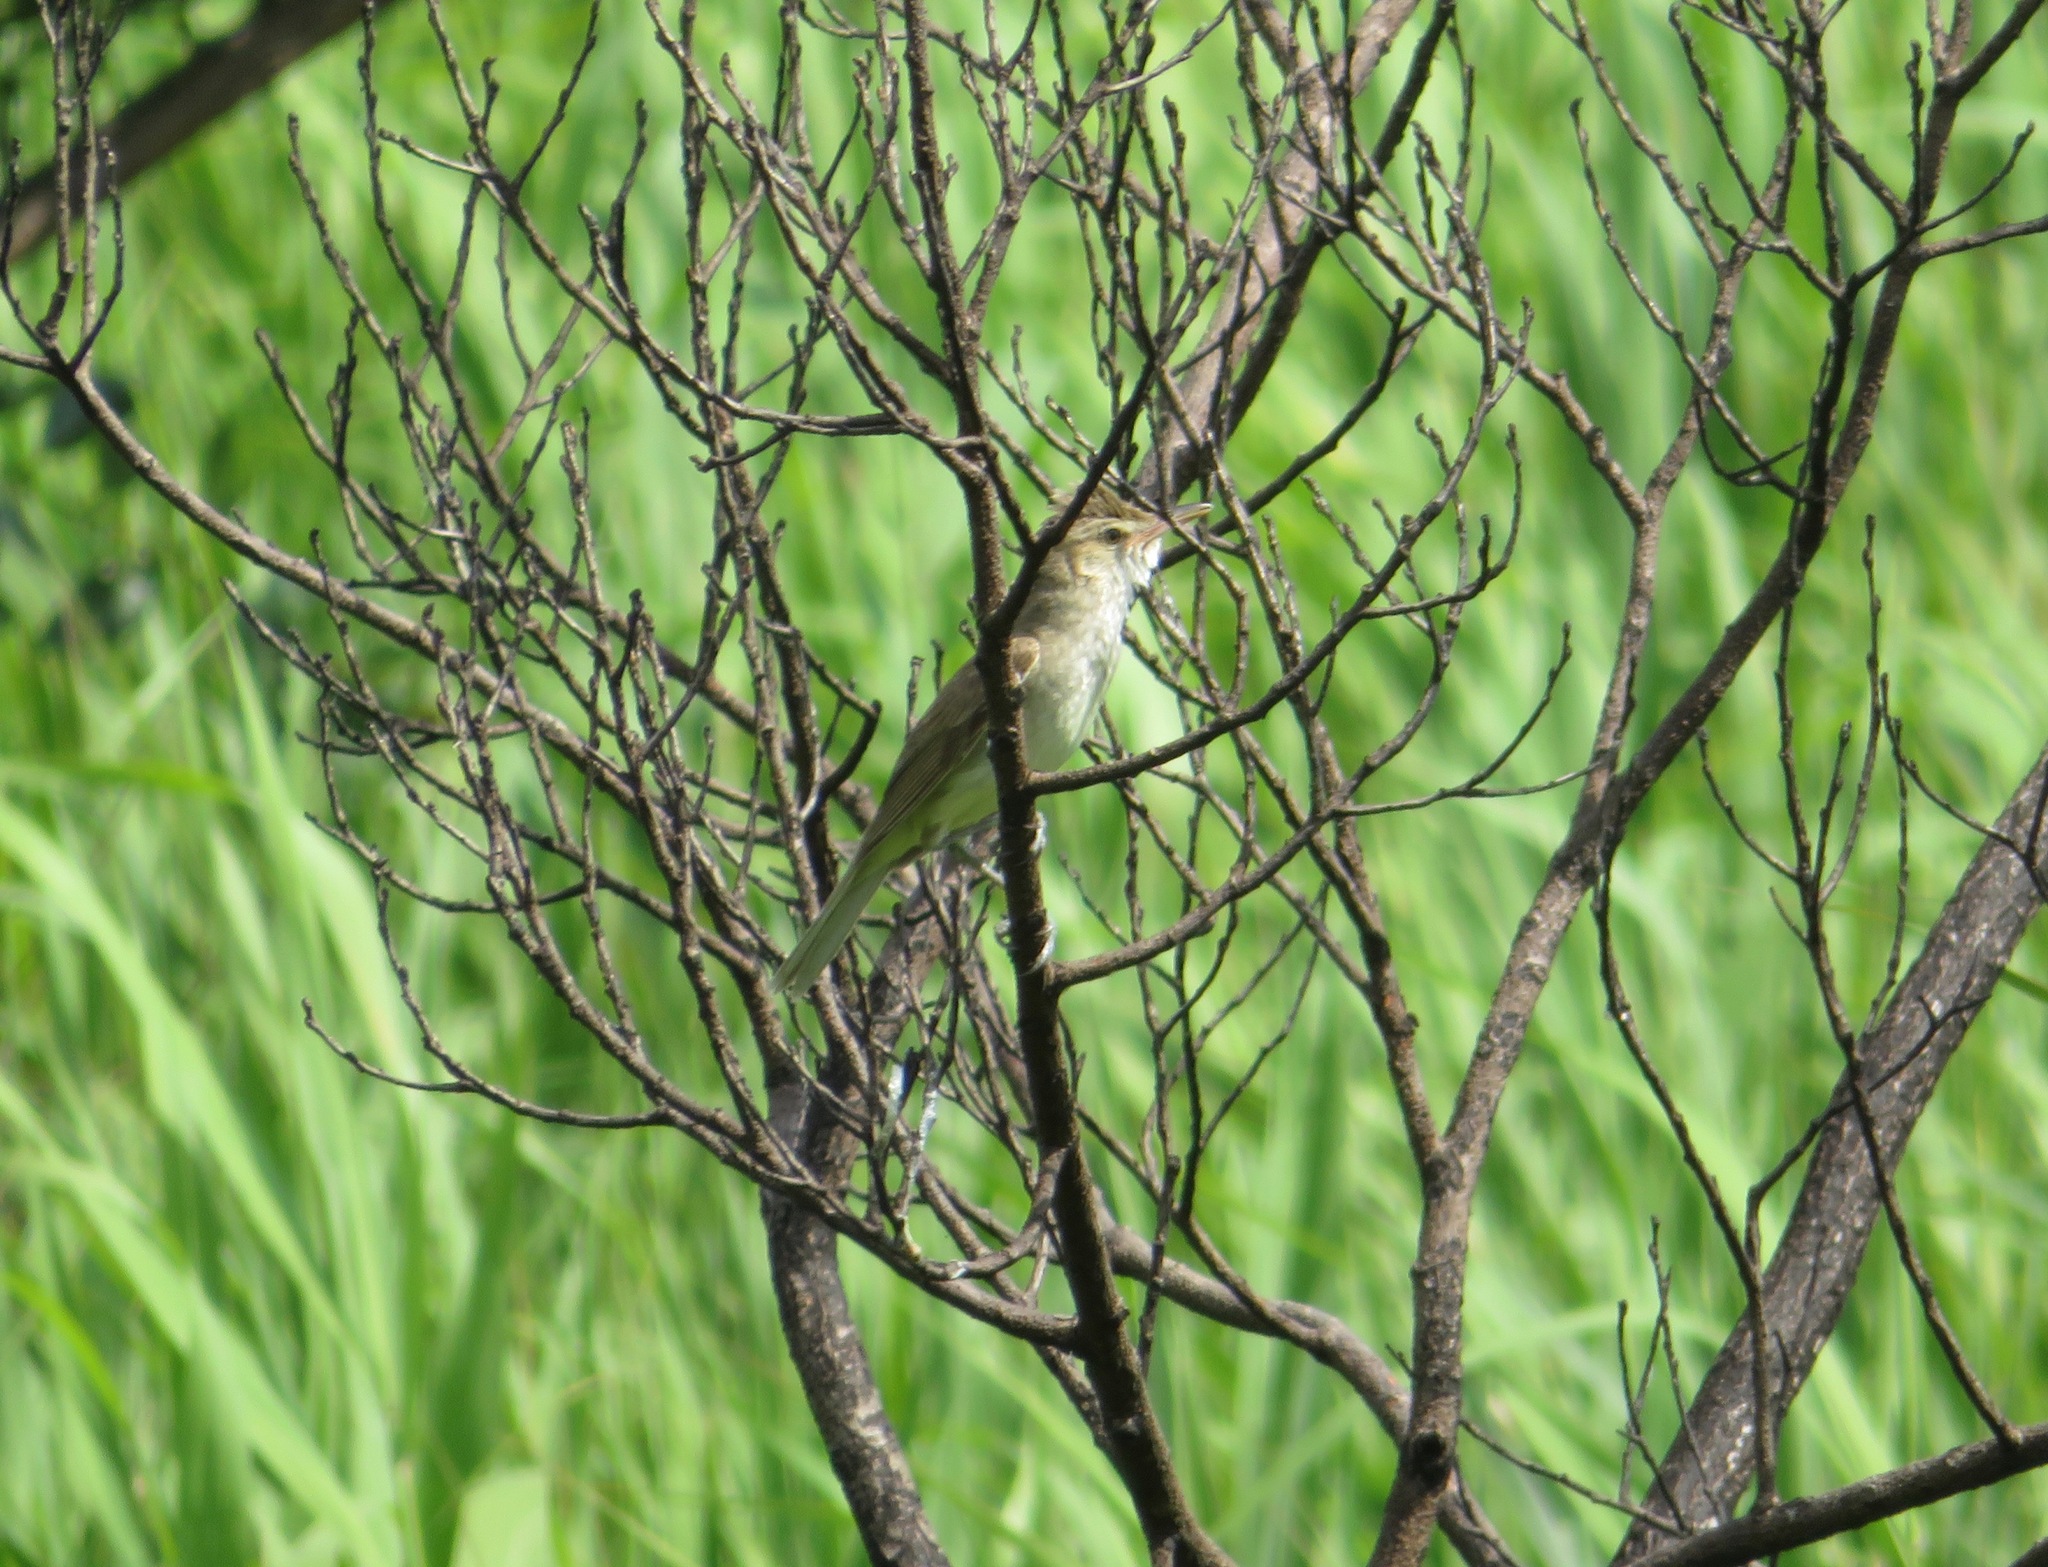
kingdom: Animalia
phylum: Chordata
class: Aves
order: Passeriformes
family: Acrocephalidae
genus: Acrocephalus
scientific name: Acrocephalus orientalis
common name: Oriental reed warbler
